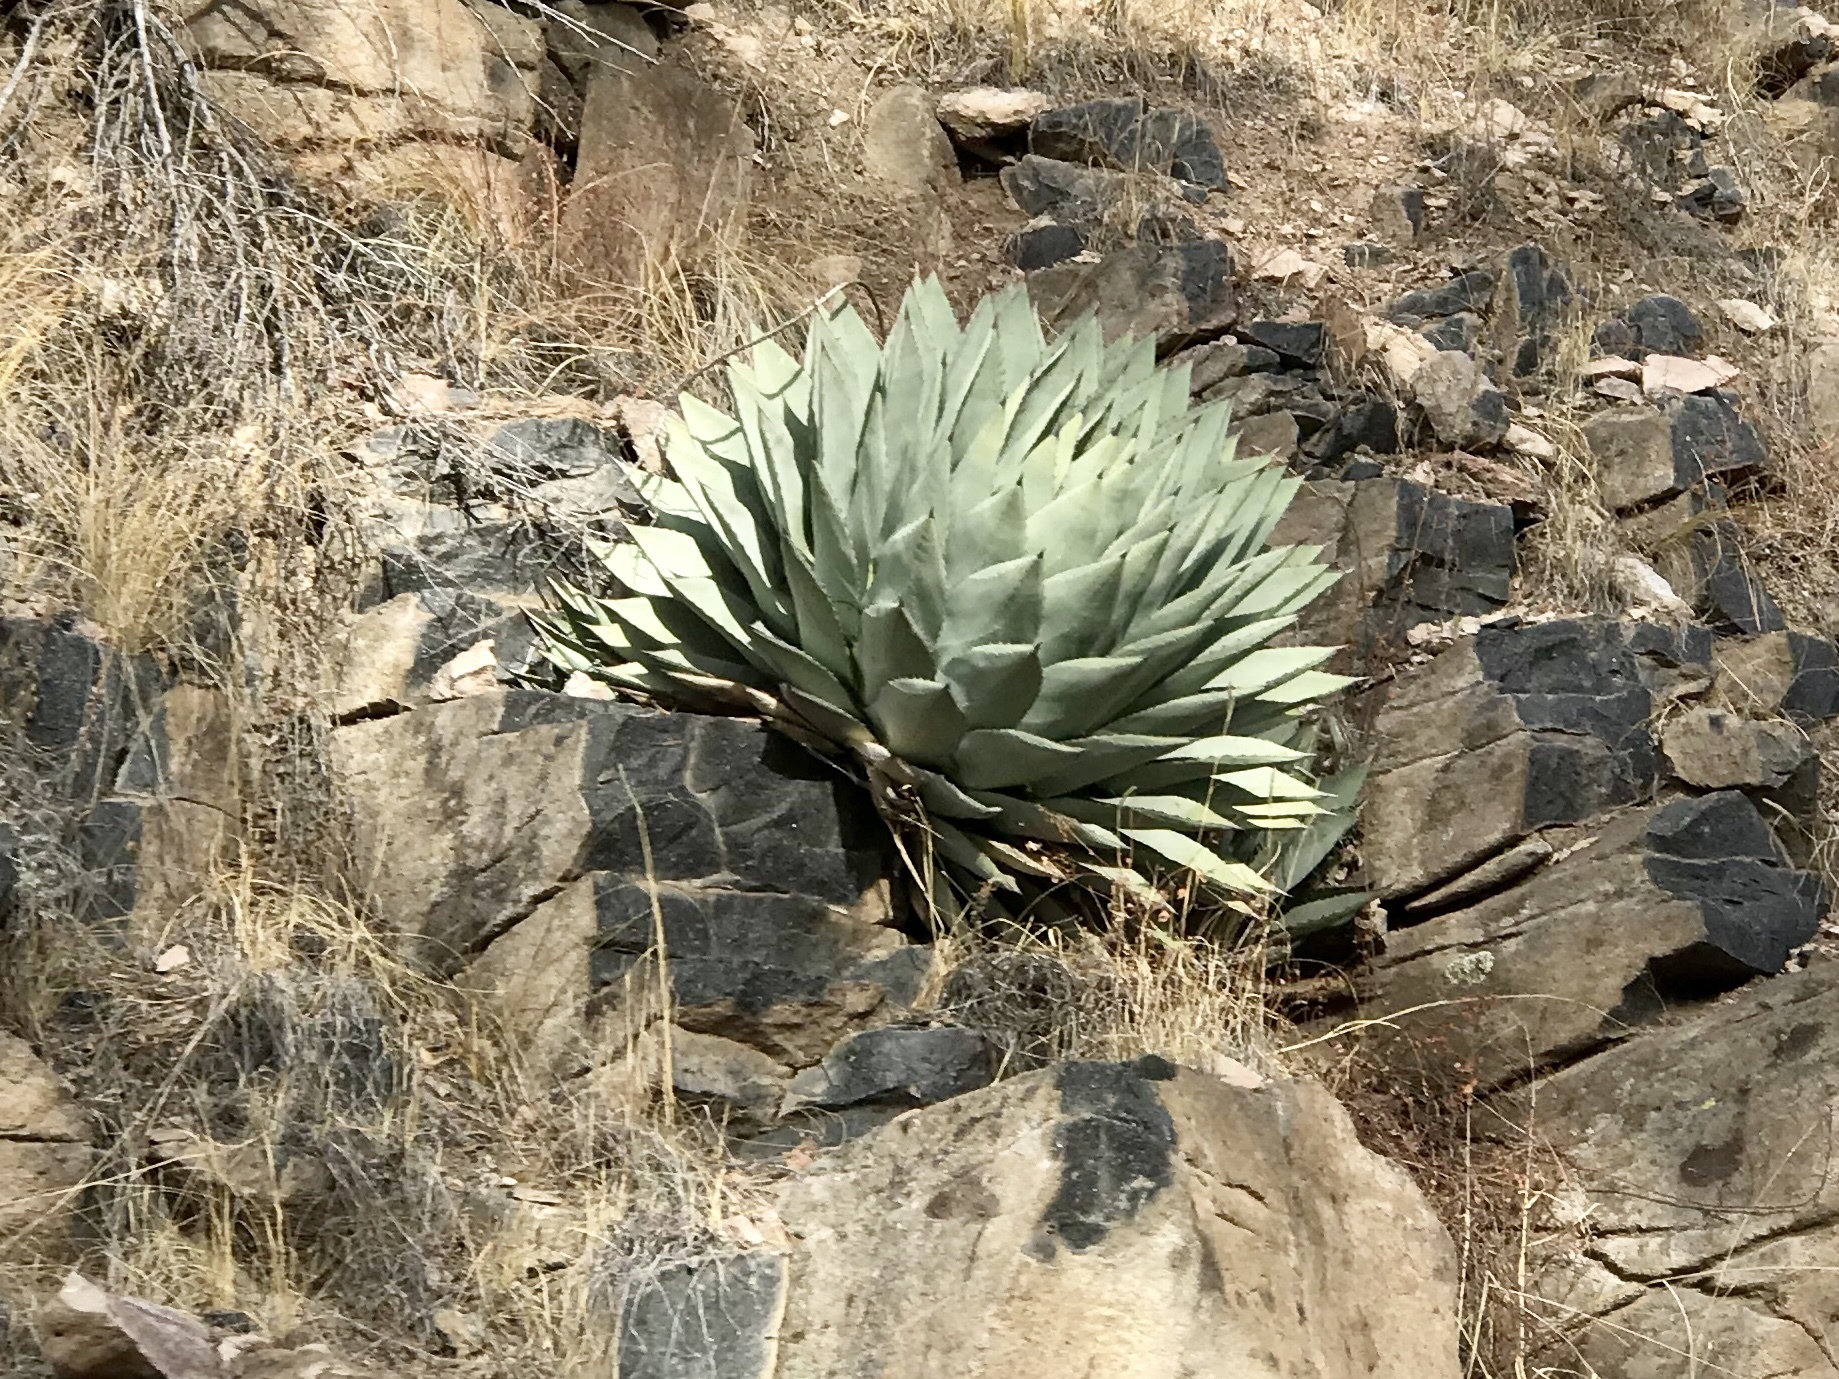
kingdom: Plantae
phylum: Tracheophyta
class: Liliopsida
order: Asparagales
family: Asparagaceae
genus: Agave
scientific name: Agave parryi
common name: Parry's agave
